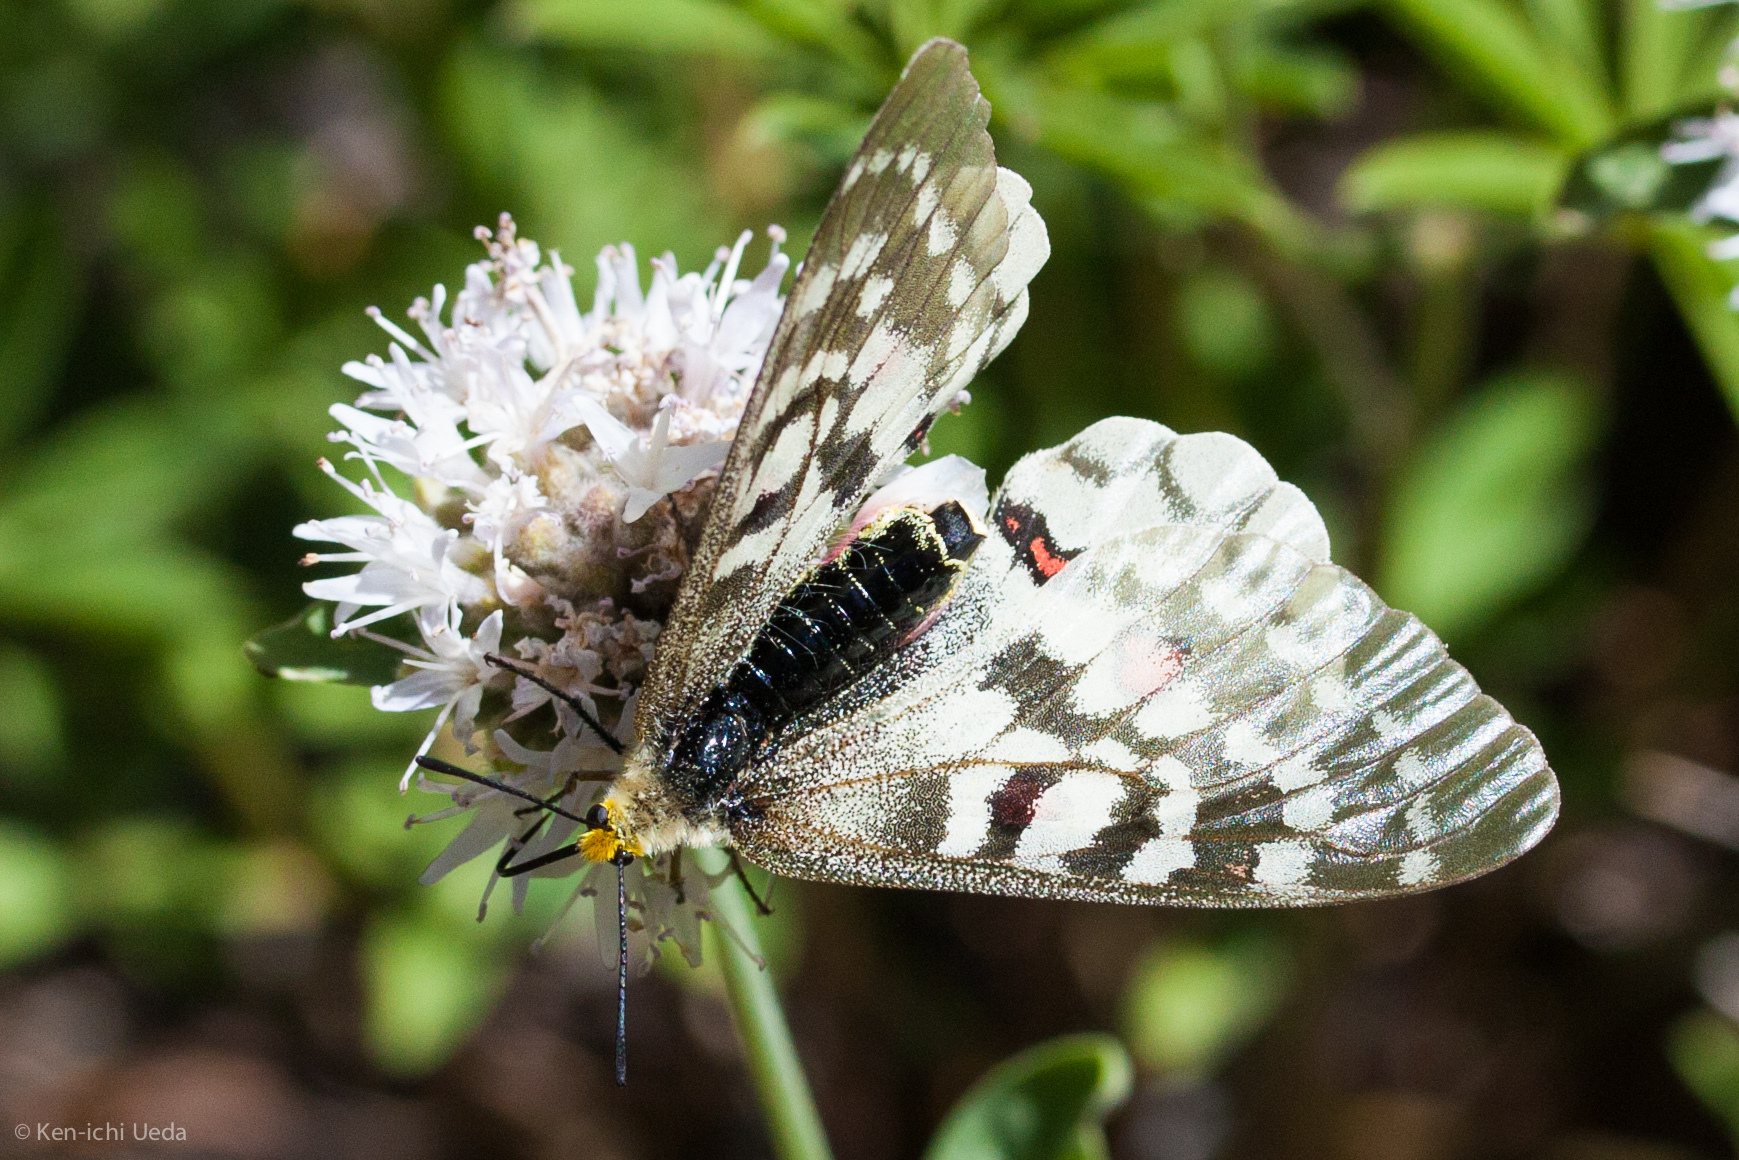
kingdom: Animalia
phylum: Arthropoda
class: Insecta
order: Lepidoptera
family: Papilionidae
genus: Parnassius
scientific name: Parnassius clodius
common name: American apollo
